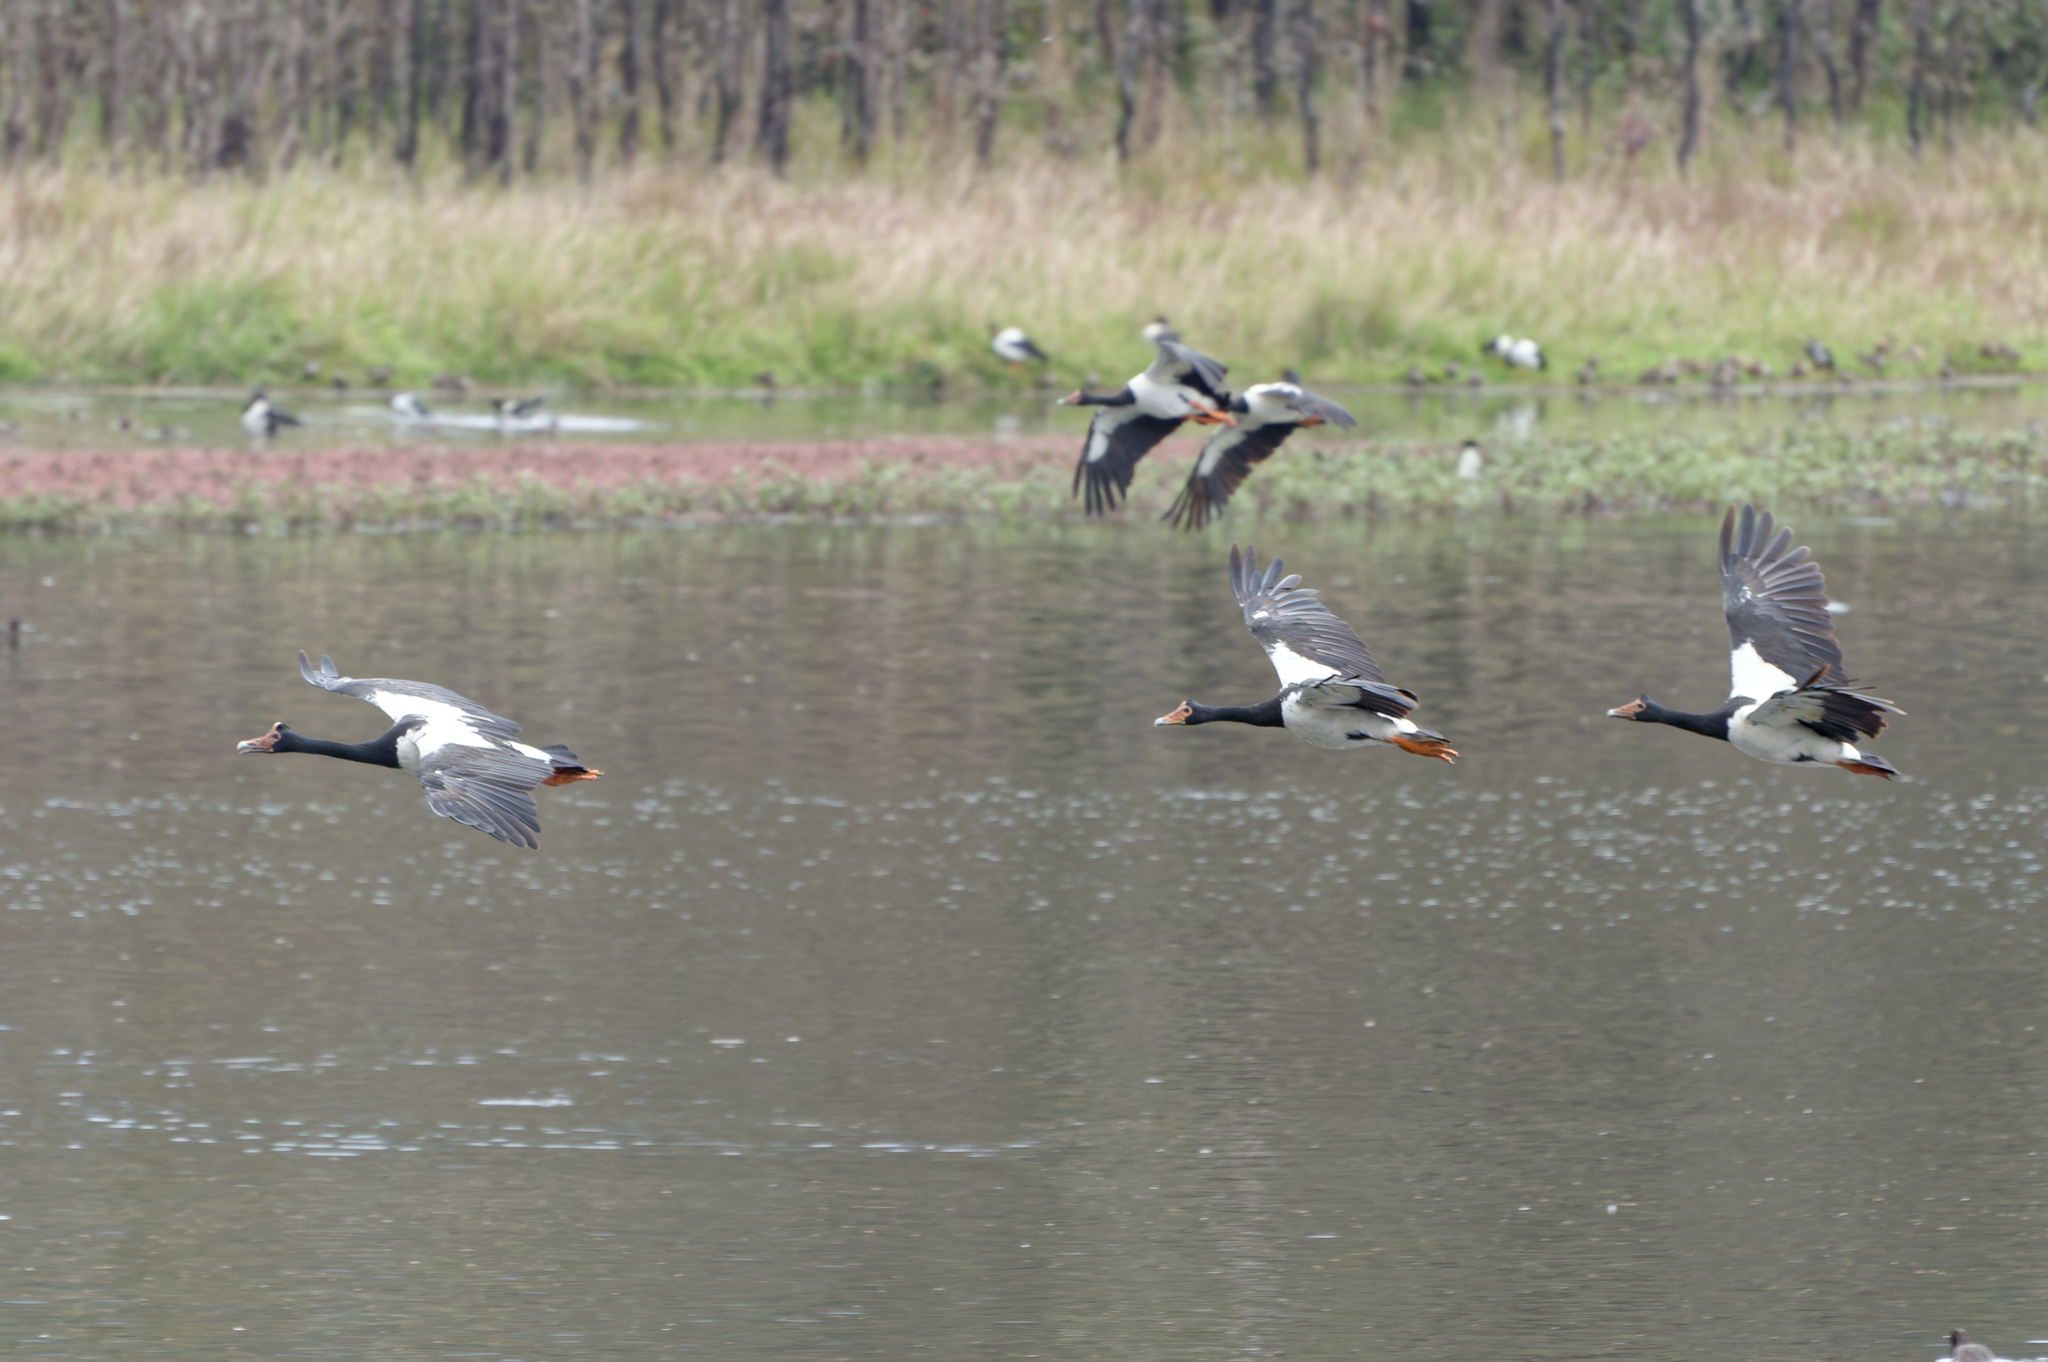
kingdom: Animalia
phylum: Chordata
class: Aves
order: Anseriformes
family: Anseranatidae
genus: Anseranas
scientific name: Anseranas semipalmata
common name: Magpie goose
